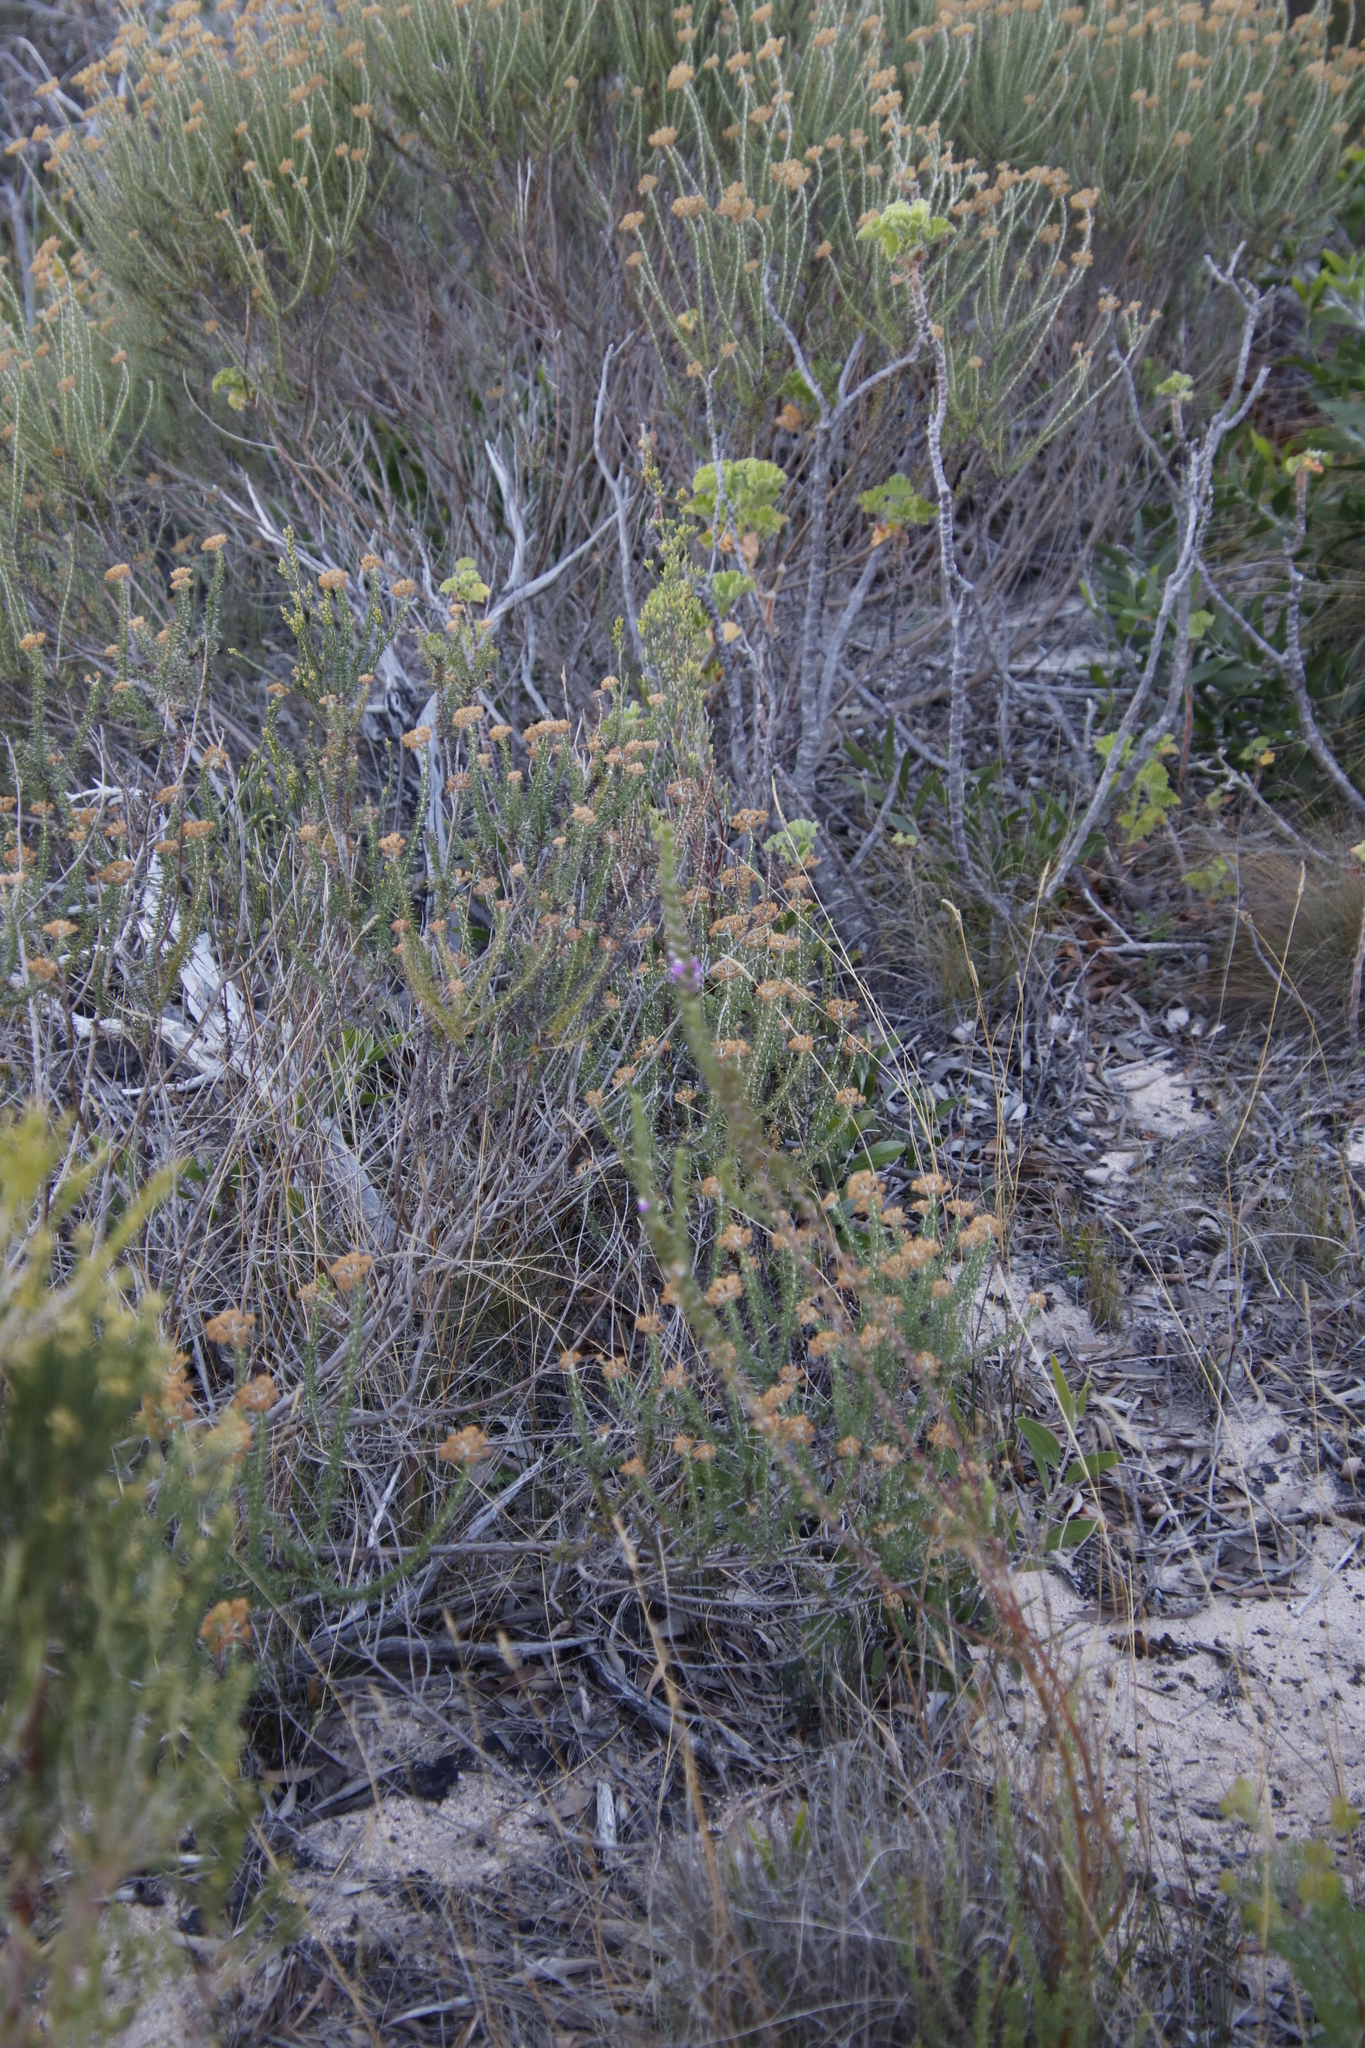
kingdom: Plantae
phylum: Tracheophyta
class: Magnoliopsida
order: Fabales
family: Polygalaceae
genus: Muraltia
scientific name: Muraltia heisteria
